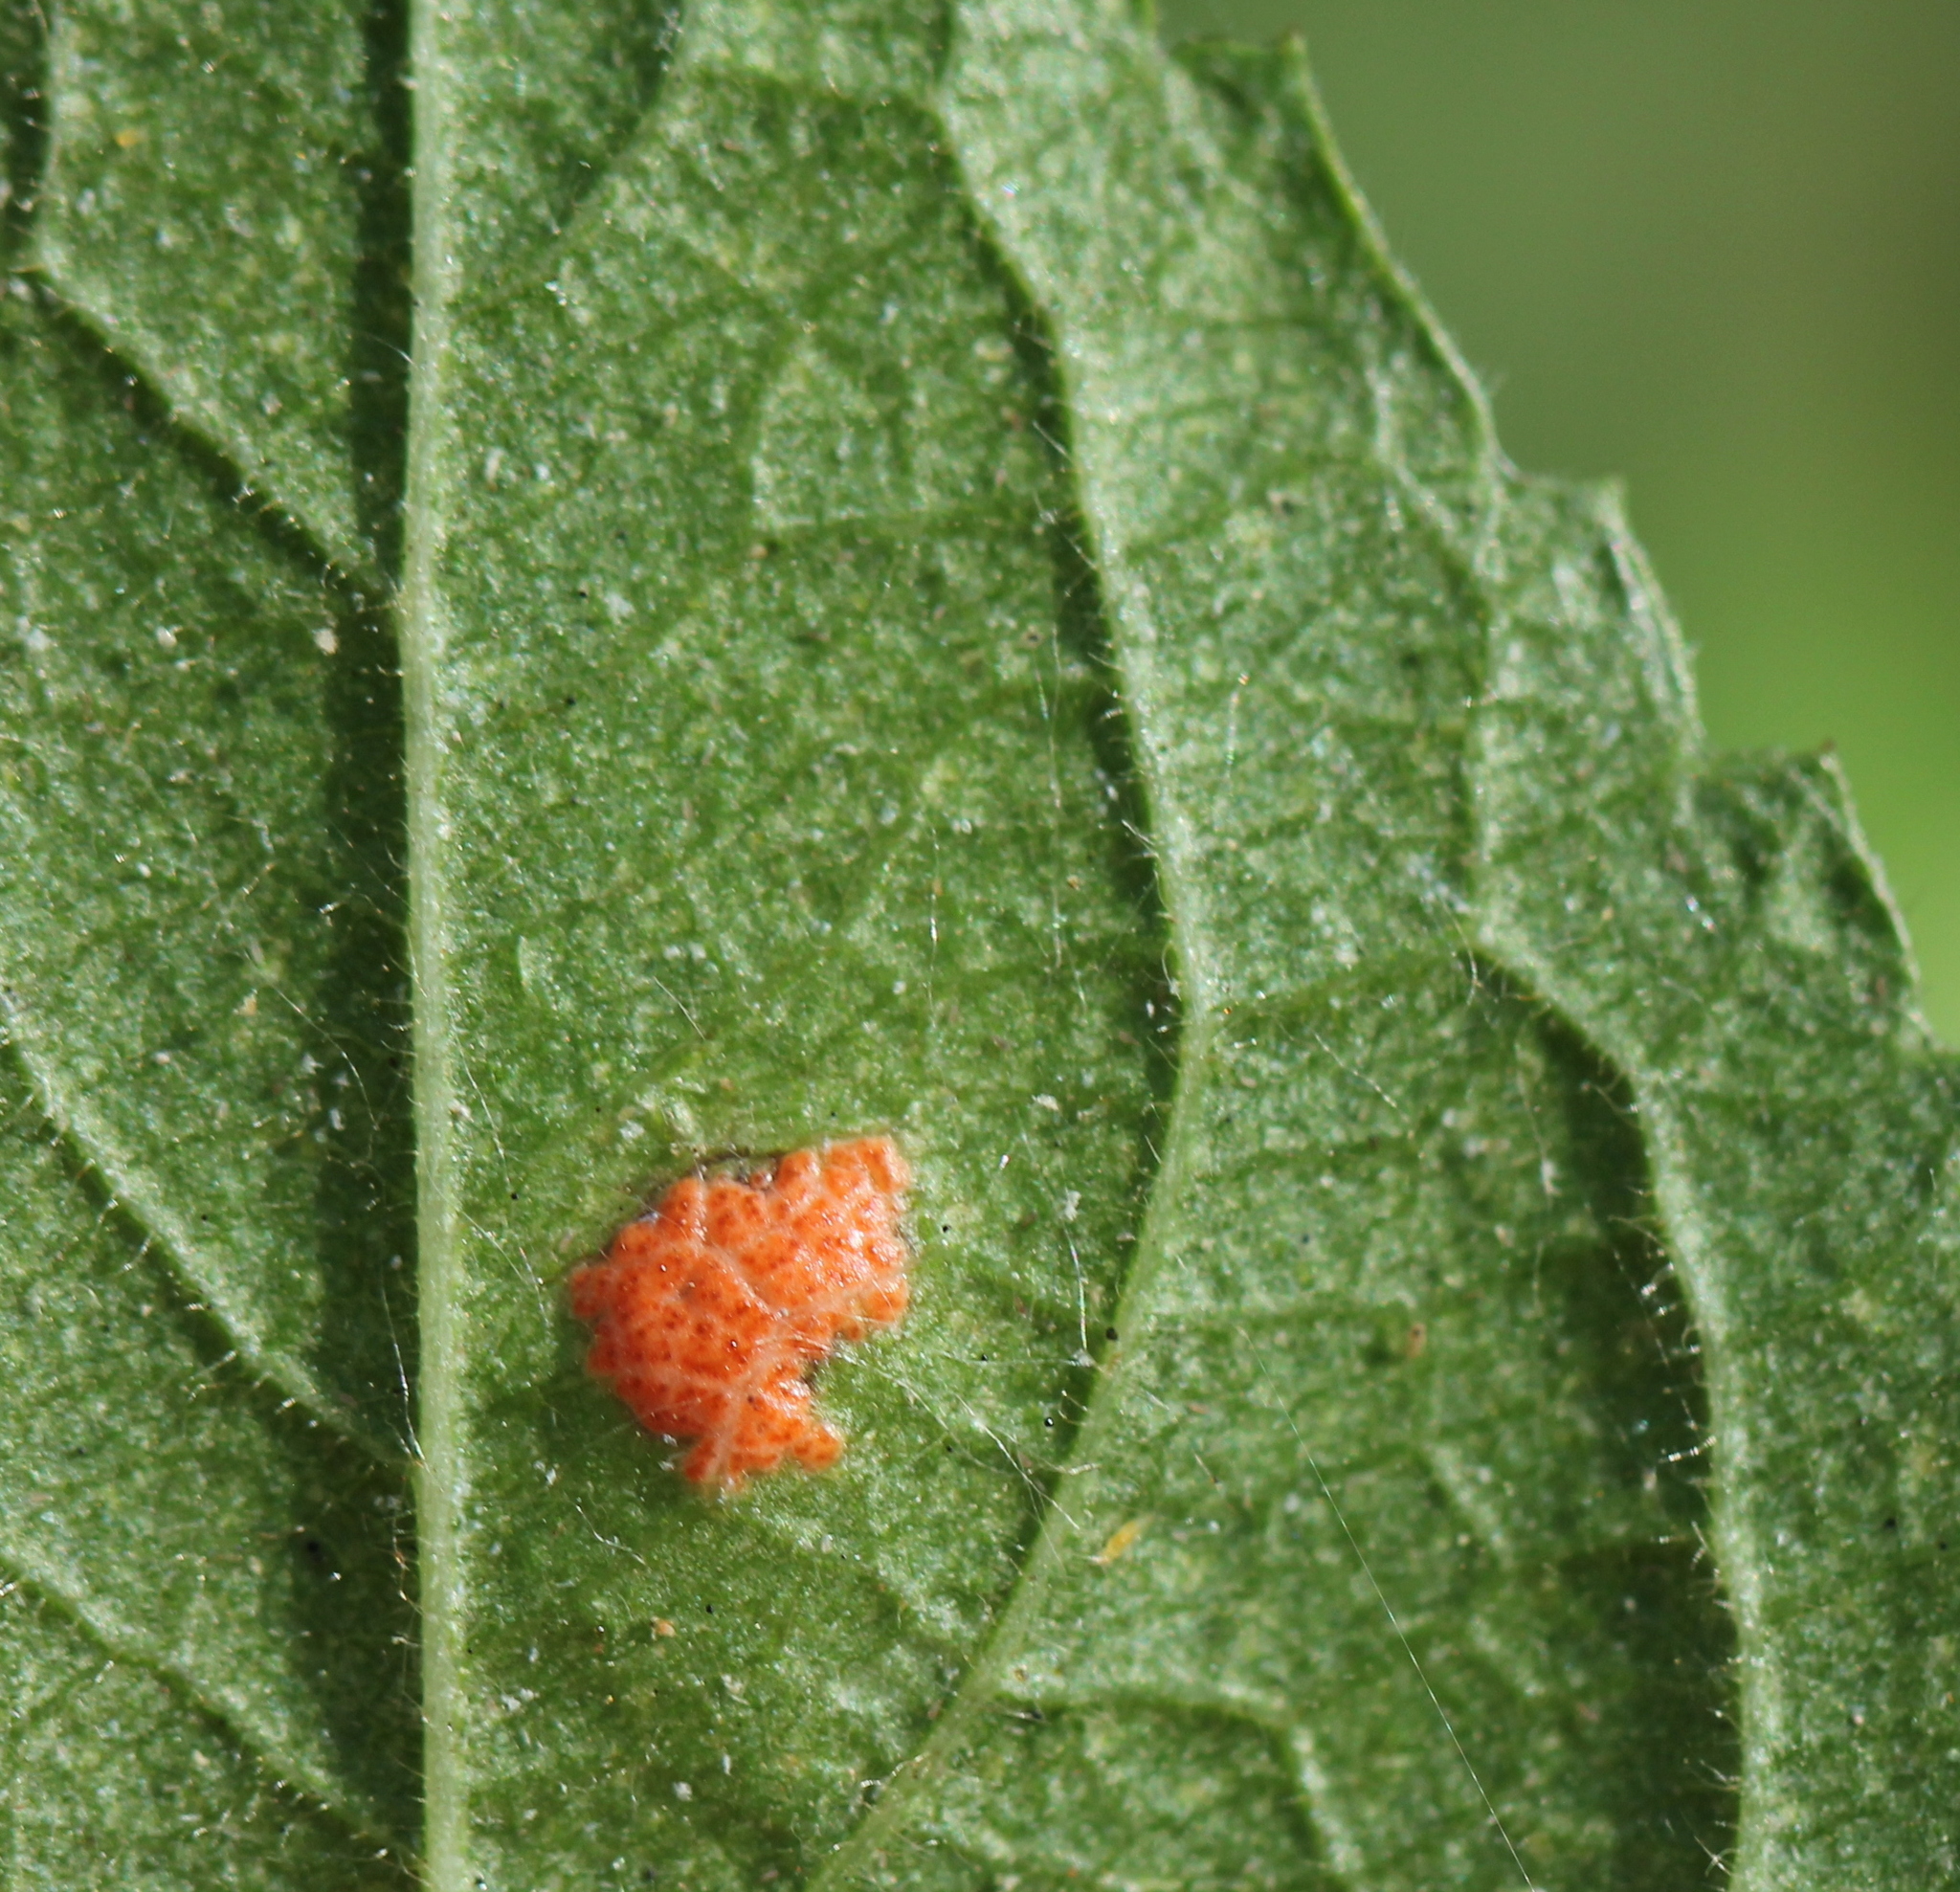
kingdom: Fungi
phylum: Ascomycota
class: Sordariomycetes
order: Phyllachorales
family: Phyllachoraceae
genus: Polystigma
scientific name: Polystigma rubrum
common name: Blackthorn dotty
